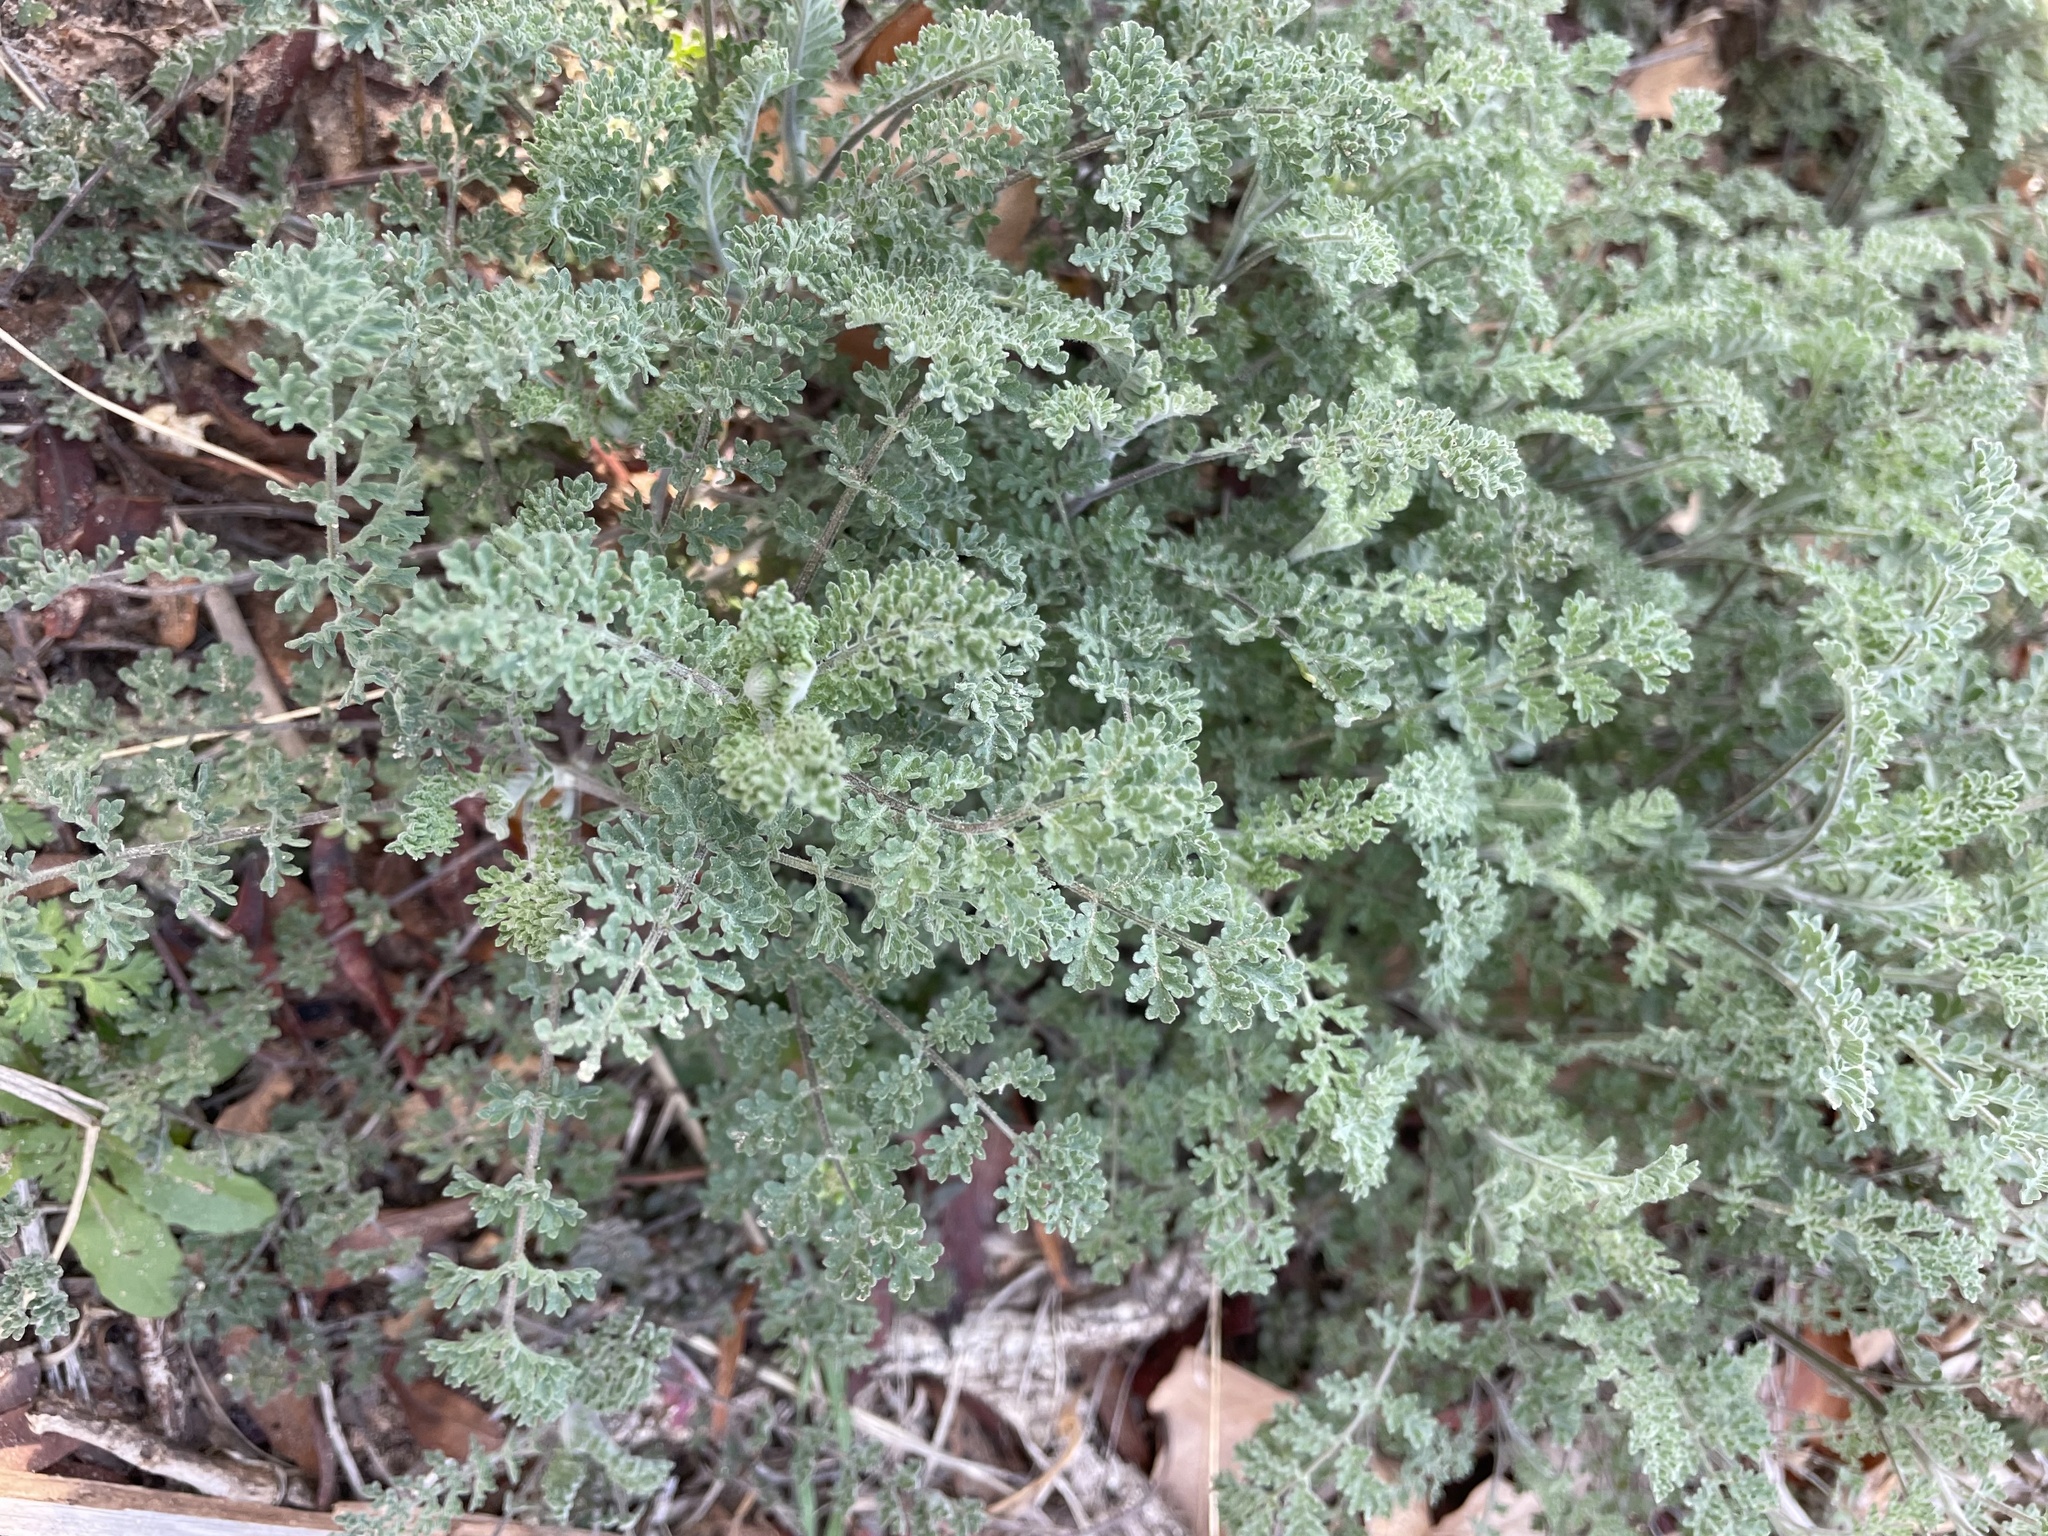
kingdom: Plantae
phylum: Tracheophyta
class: Magnoliopsida
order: Brassicales
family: Brassicaceae
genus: Descurainia
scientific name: Descurainia pinnata
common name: Western tansy mustard
